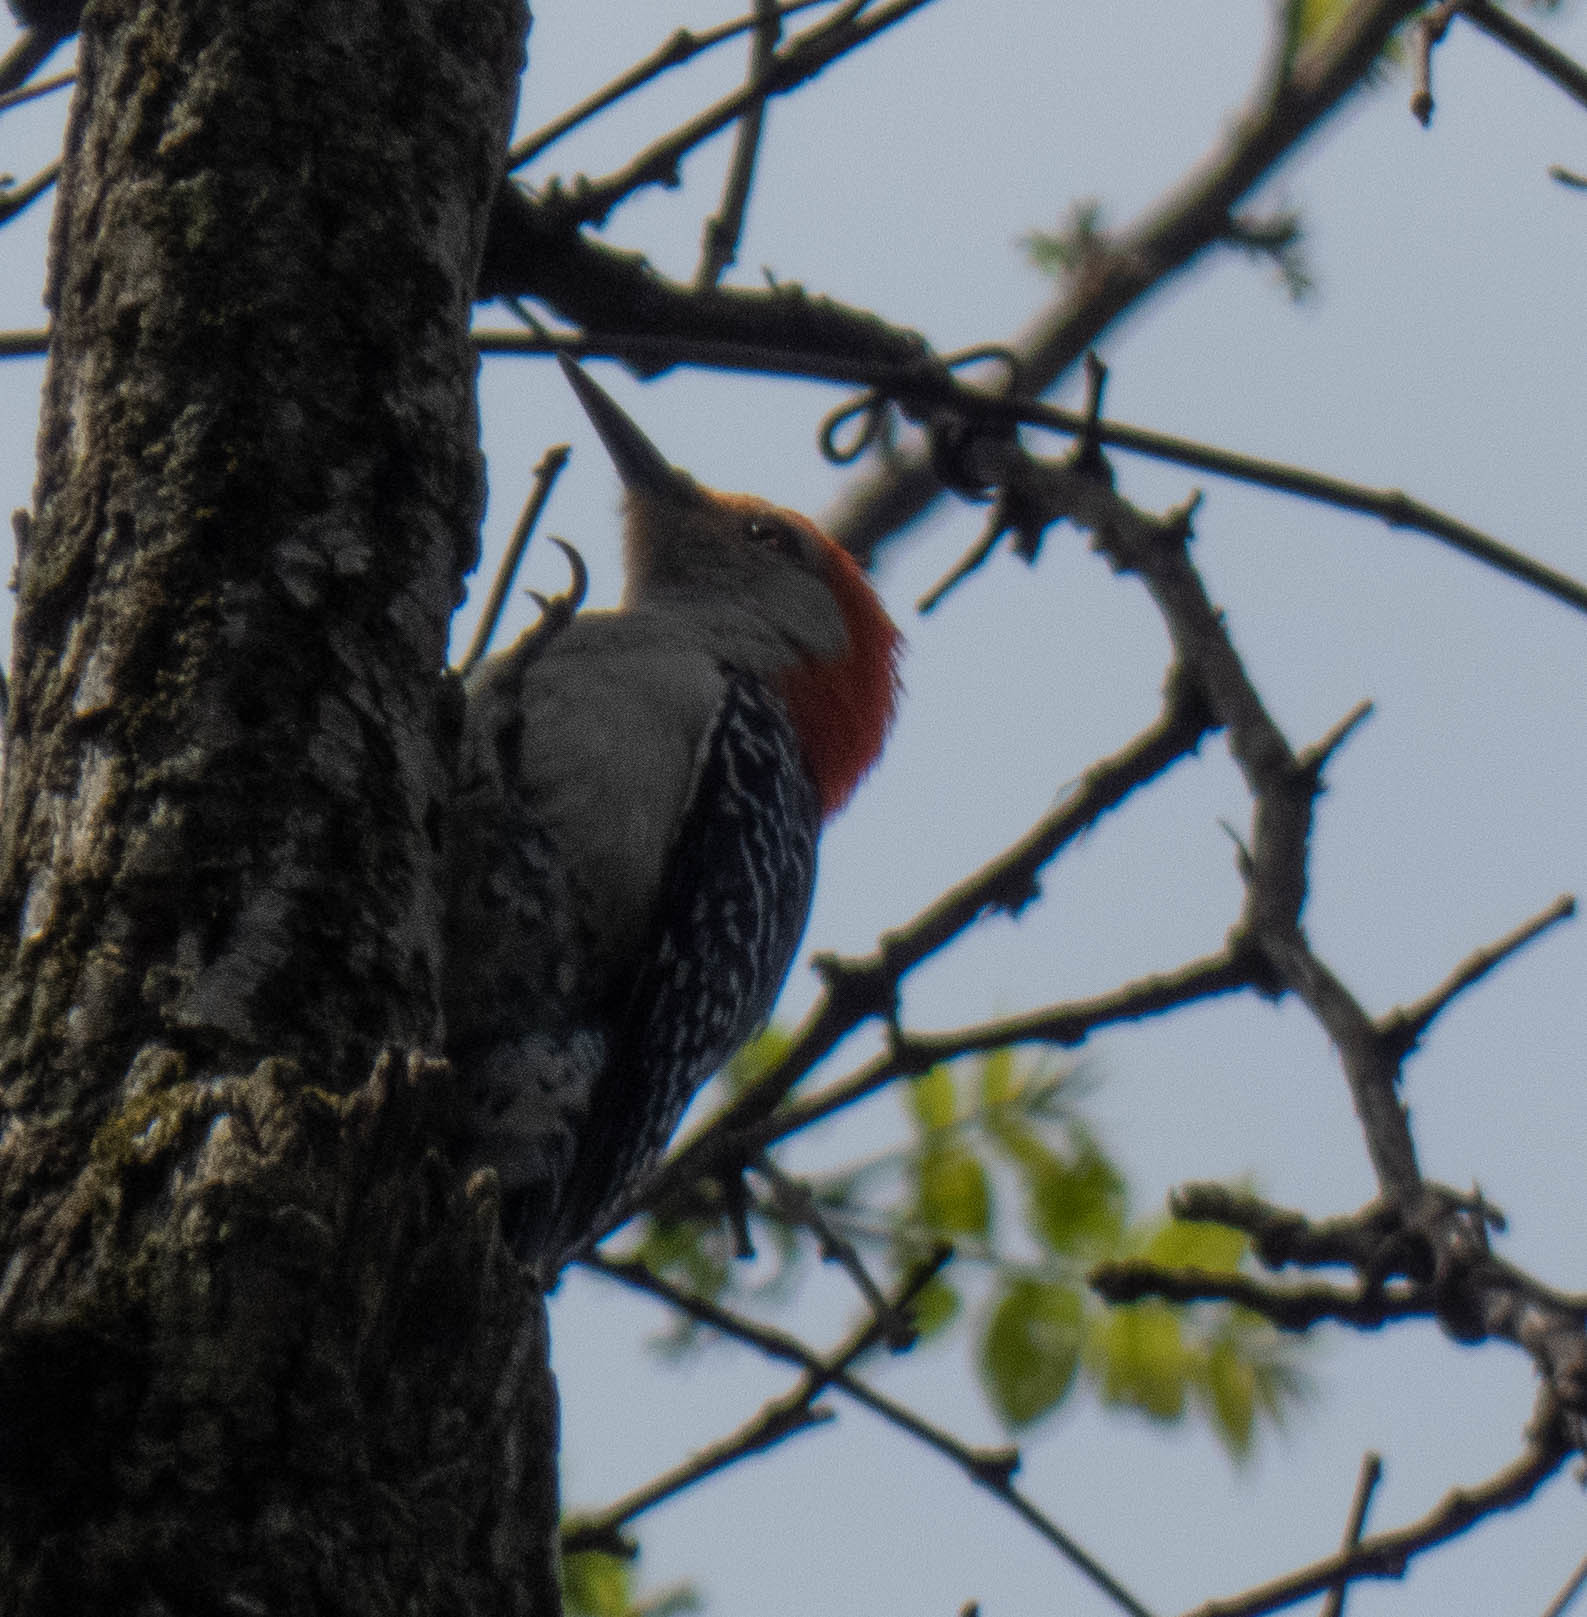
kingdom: Animalia
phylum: Chordata
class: Aves
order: Piciformes
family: Picidae
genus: Melanerpes
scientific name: Melanerpes carolinus
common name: Red-bellied woodpecker
